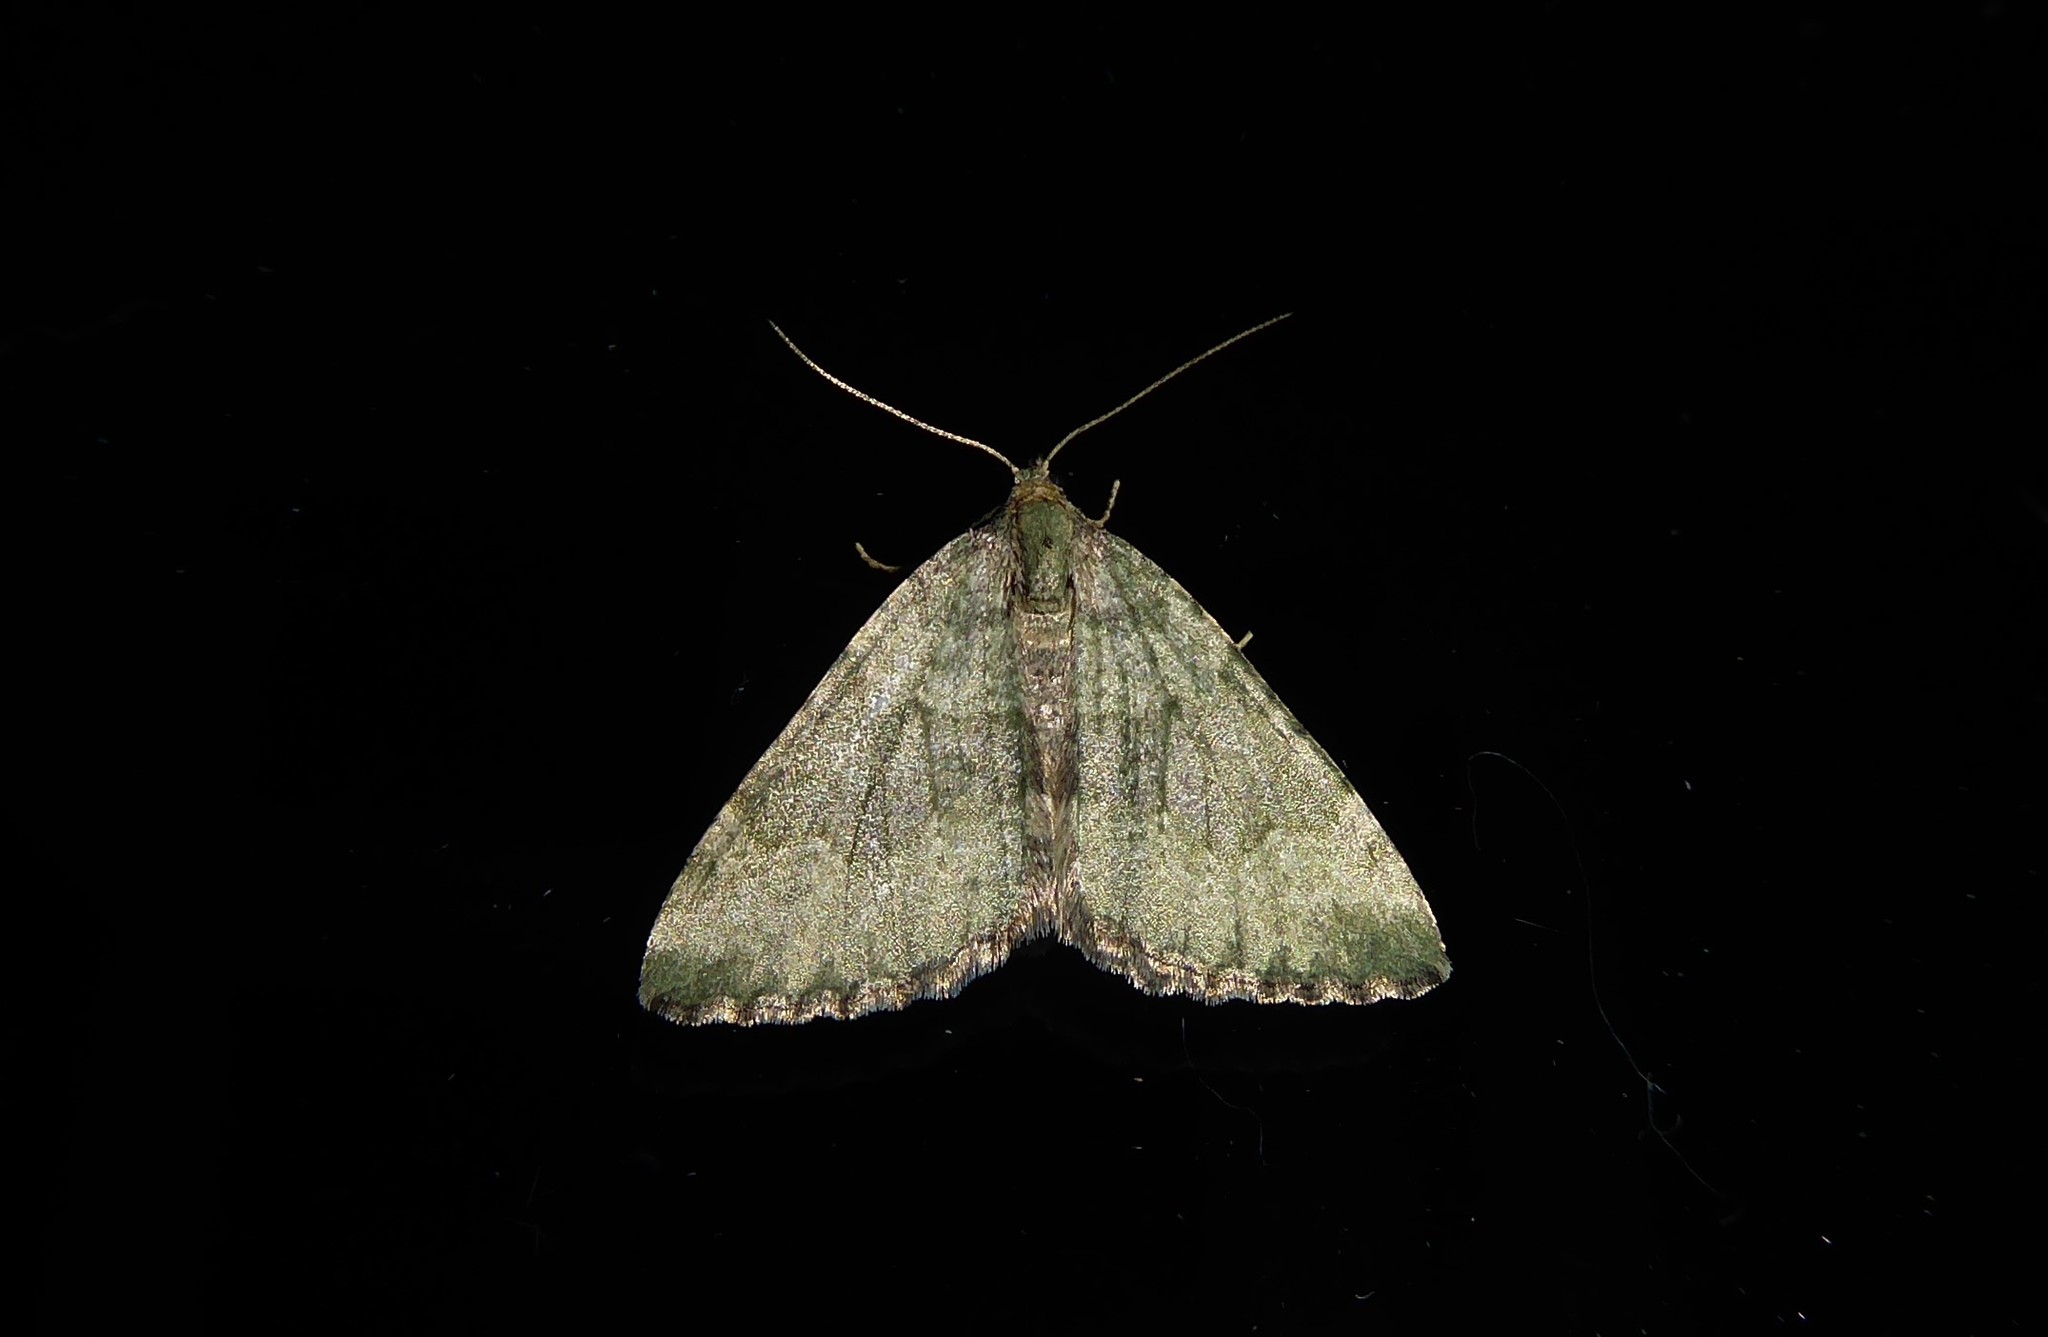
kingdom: Animalia
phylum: Arthropoda
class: Insecta
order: Lepidoptera
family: Geometridae
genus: Epyaxa
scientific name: Epyaxa rosearia
